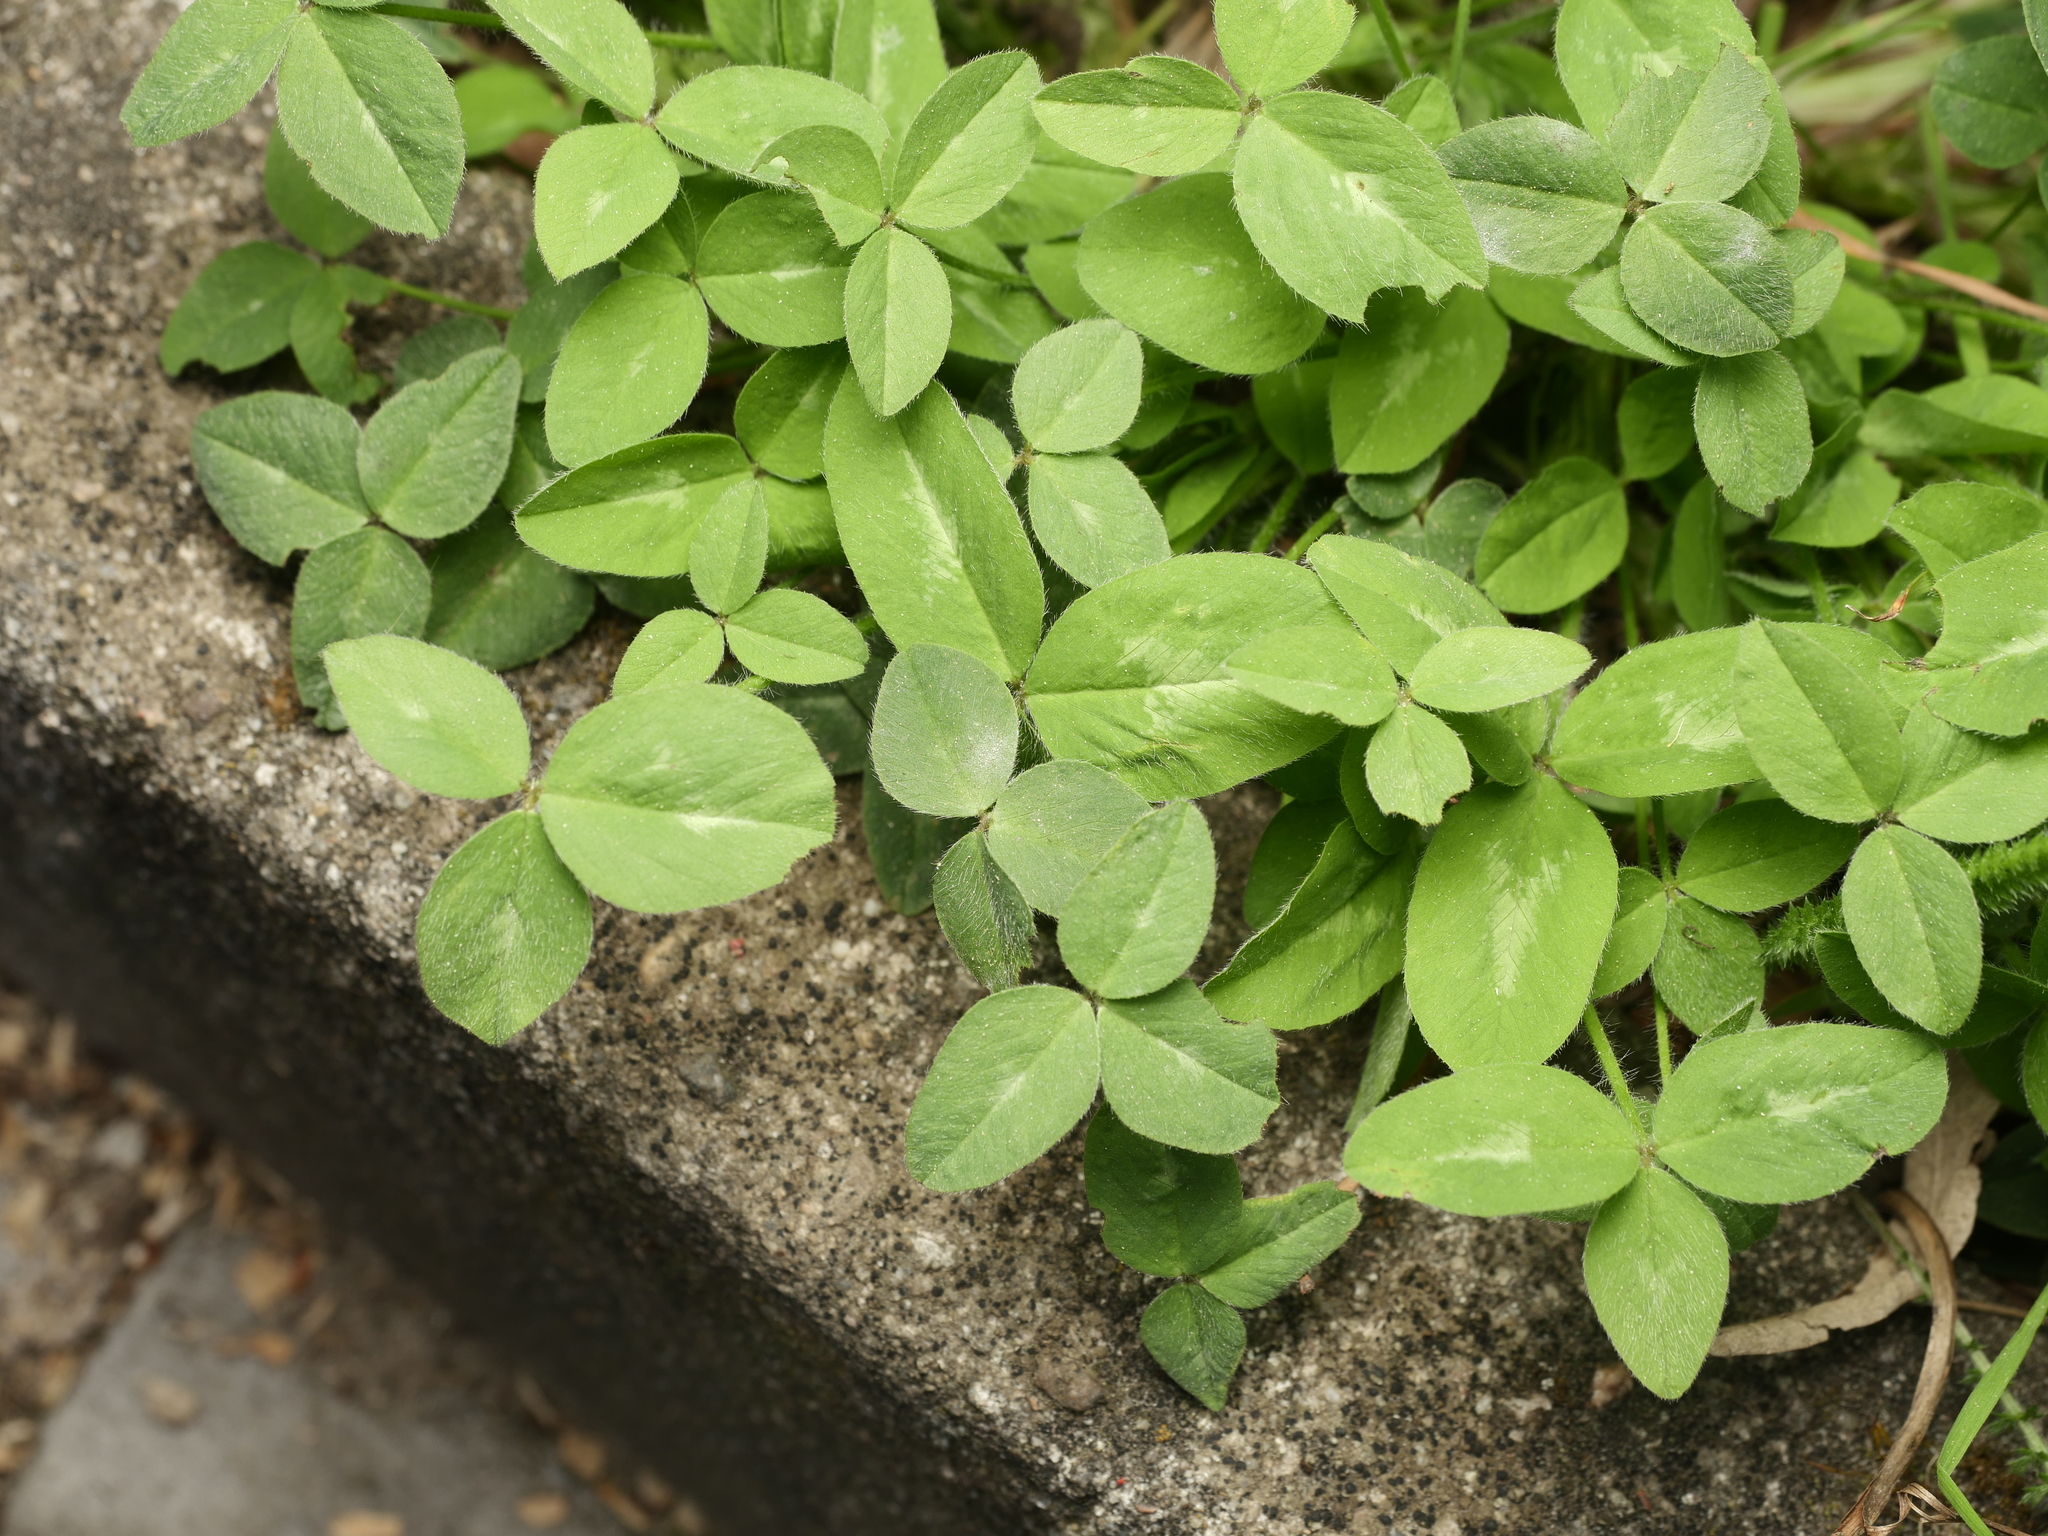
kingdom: Plantae
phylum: Tracheophyta
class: Magnoliopsida
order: Fabales
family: Fabaceae
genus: Trifolium
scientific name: Trifolium pratense
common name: Red clover
